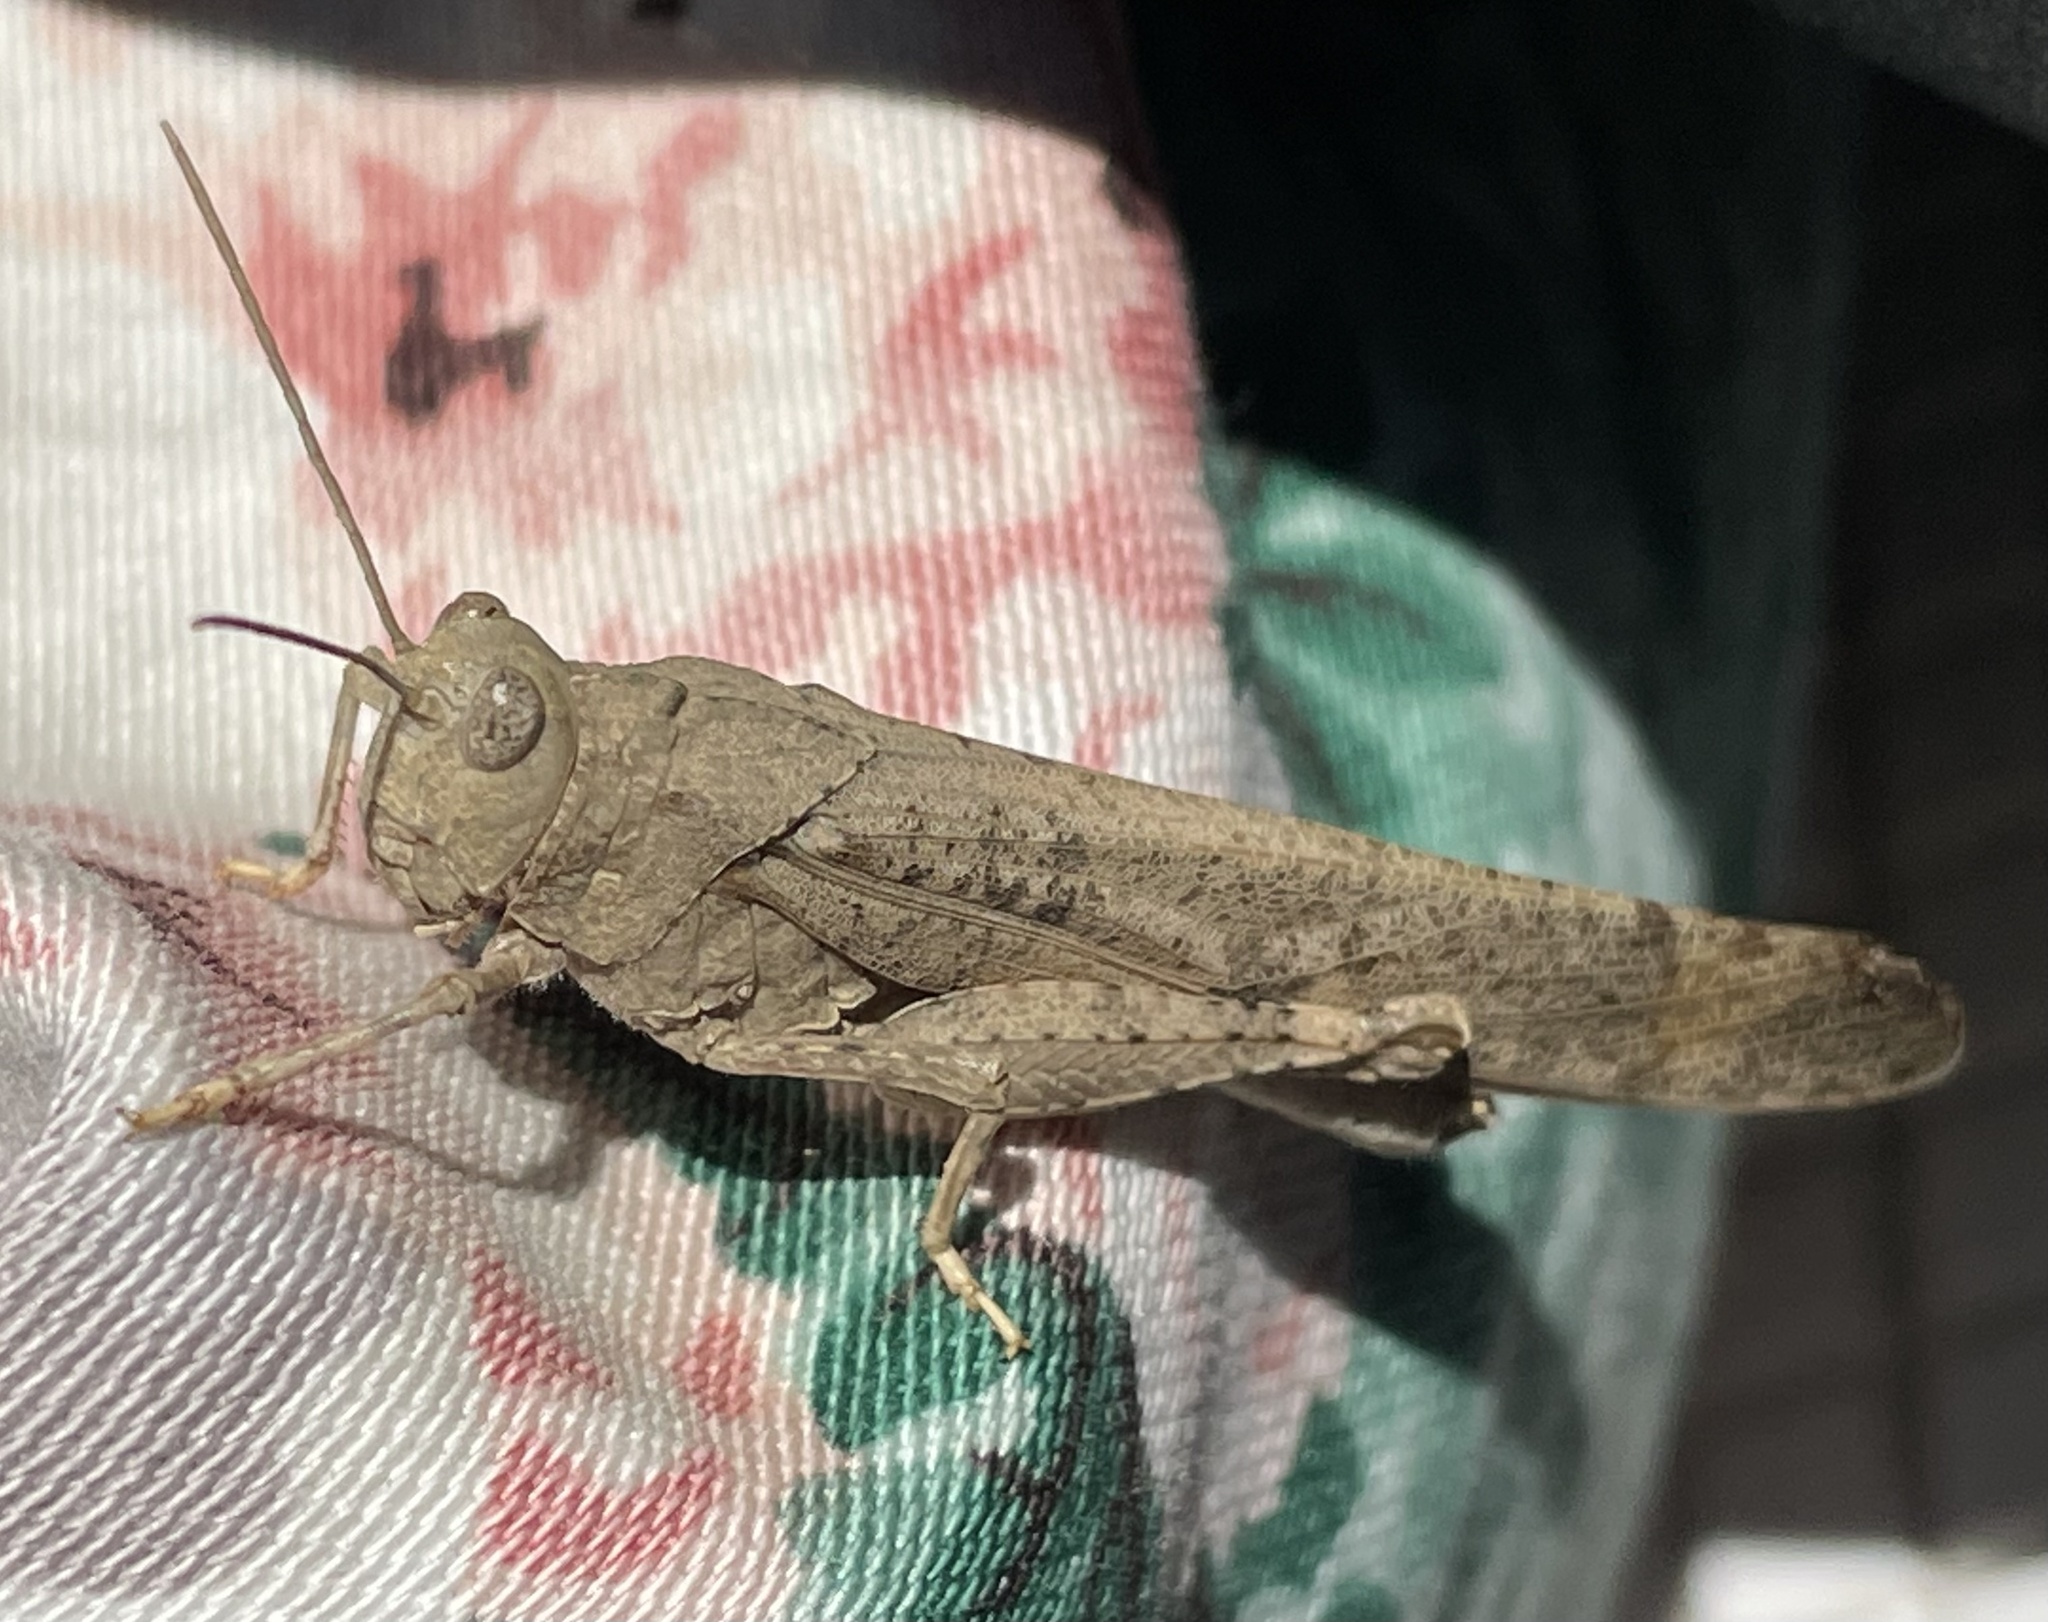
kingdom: Animalia
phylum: Arthropoda
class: Insecta
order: Orthoptera
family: Acrididae
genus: Dissosteira
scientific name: Dissosteira carolina
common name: Carolina grasshopper
